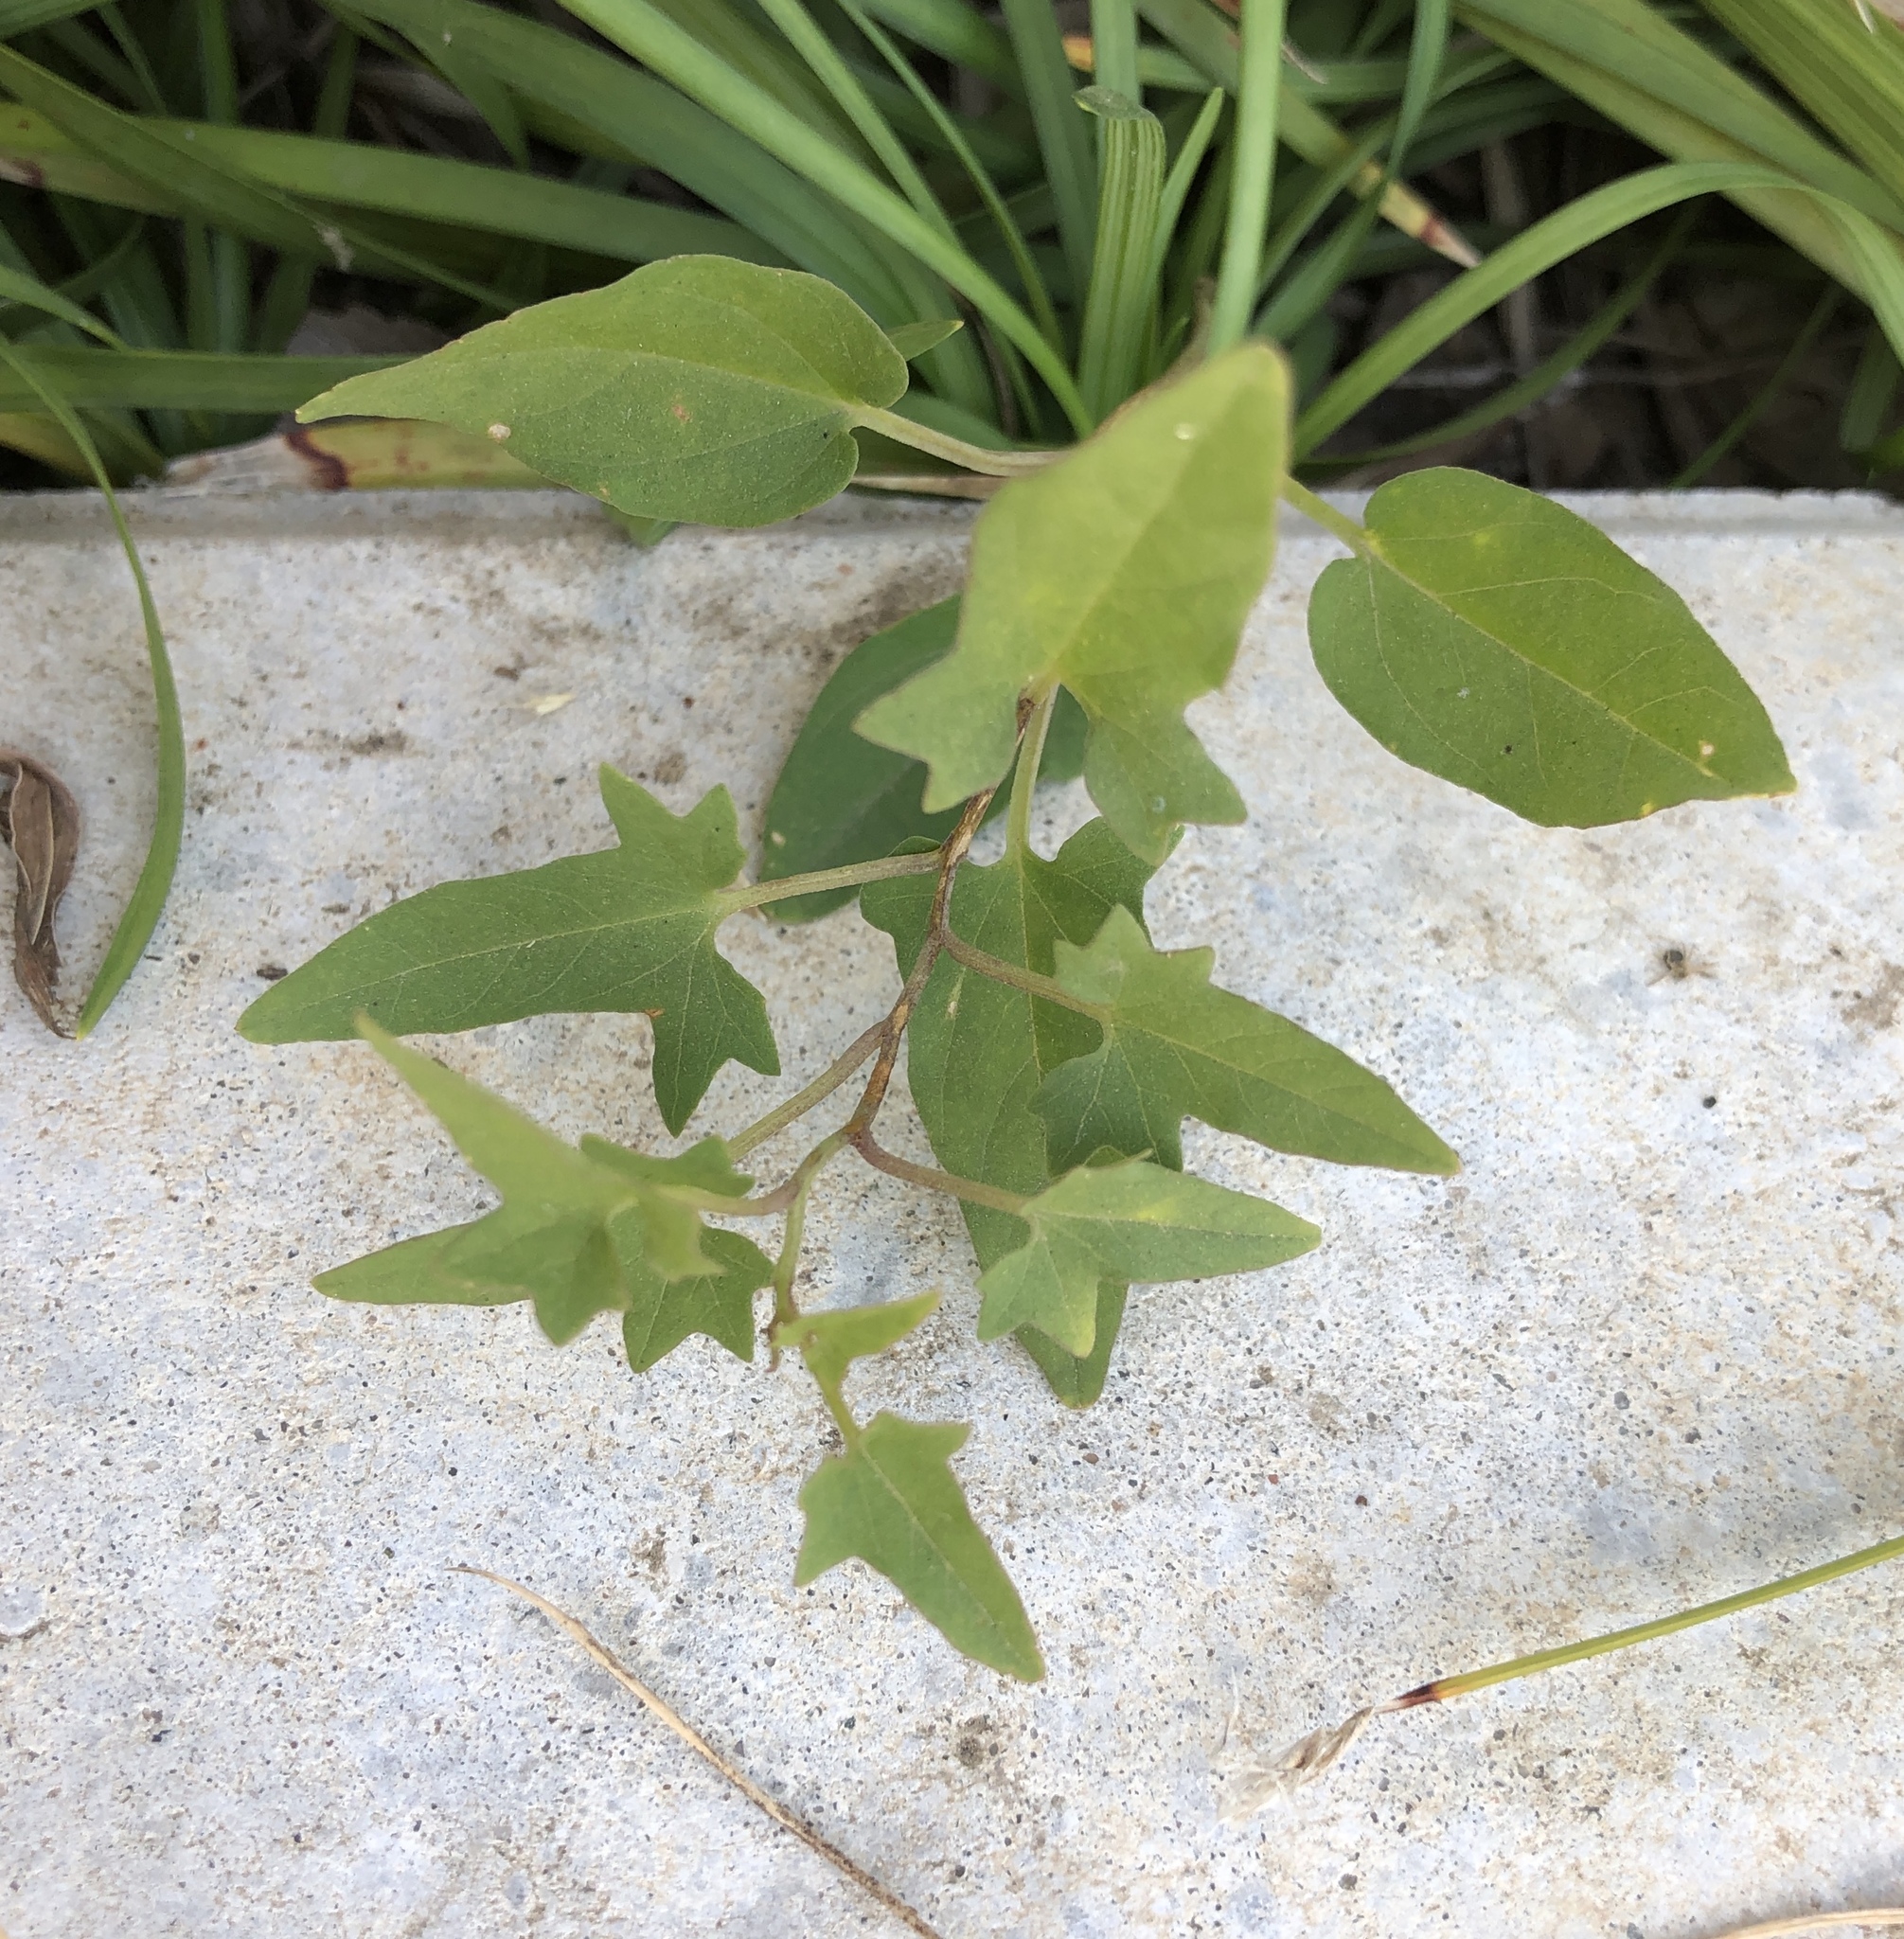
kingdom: Plantae
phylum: Tracheophyta
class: Magnoliopsida
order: Solanales
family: Convolvulaceae
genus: Calystegia
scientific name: Calystegia hederacea
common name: Japanese false bindweed
